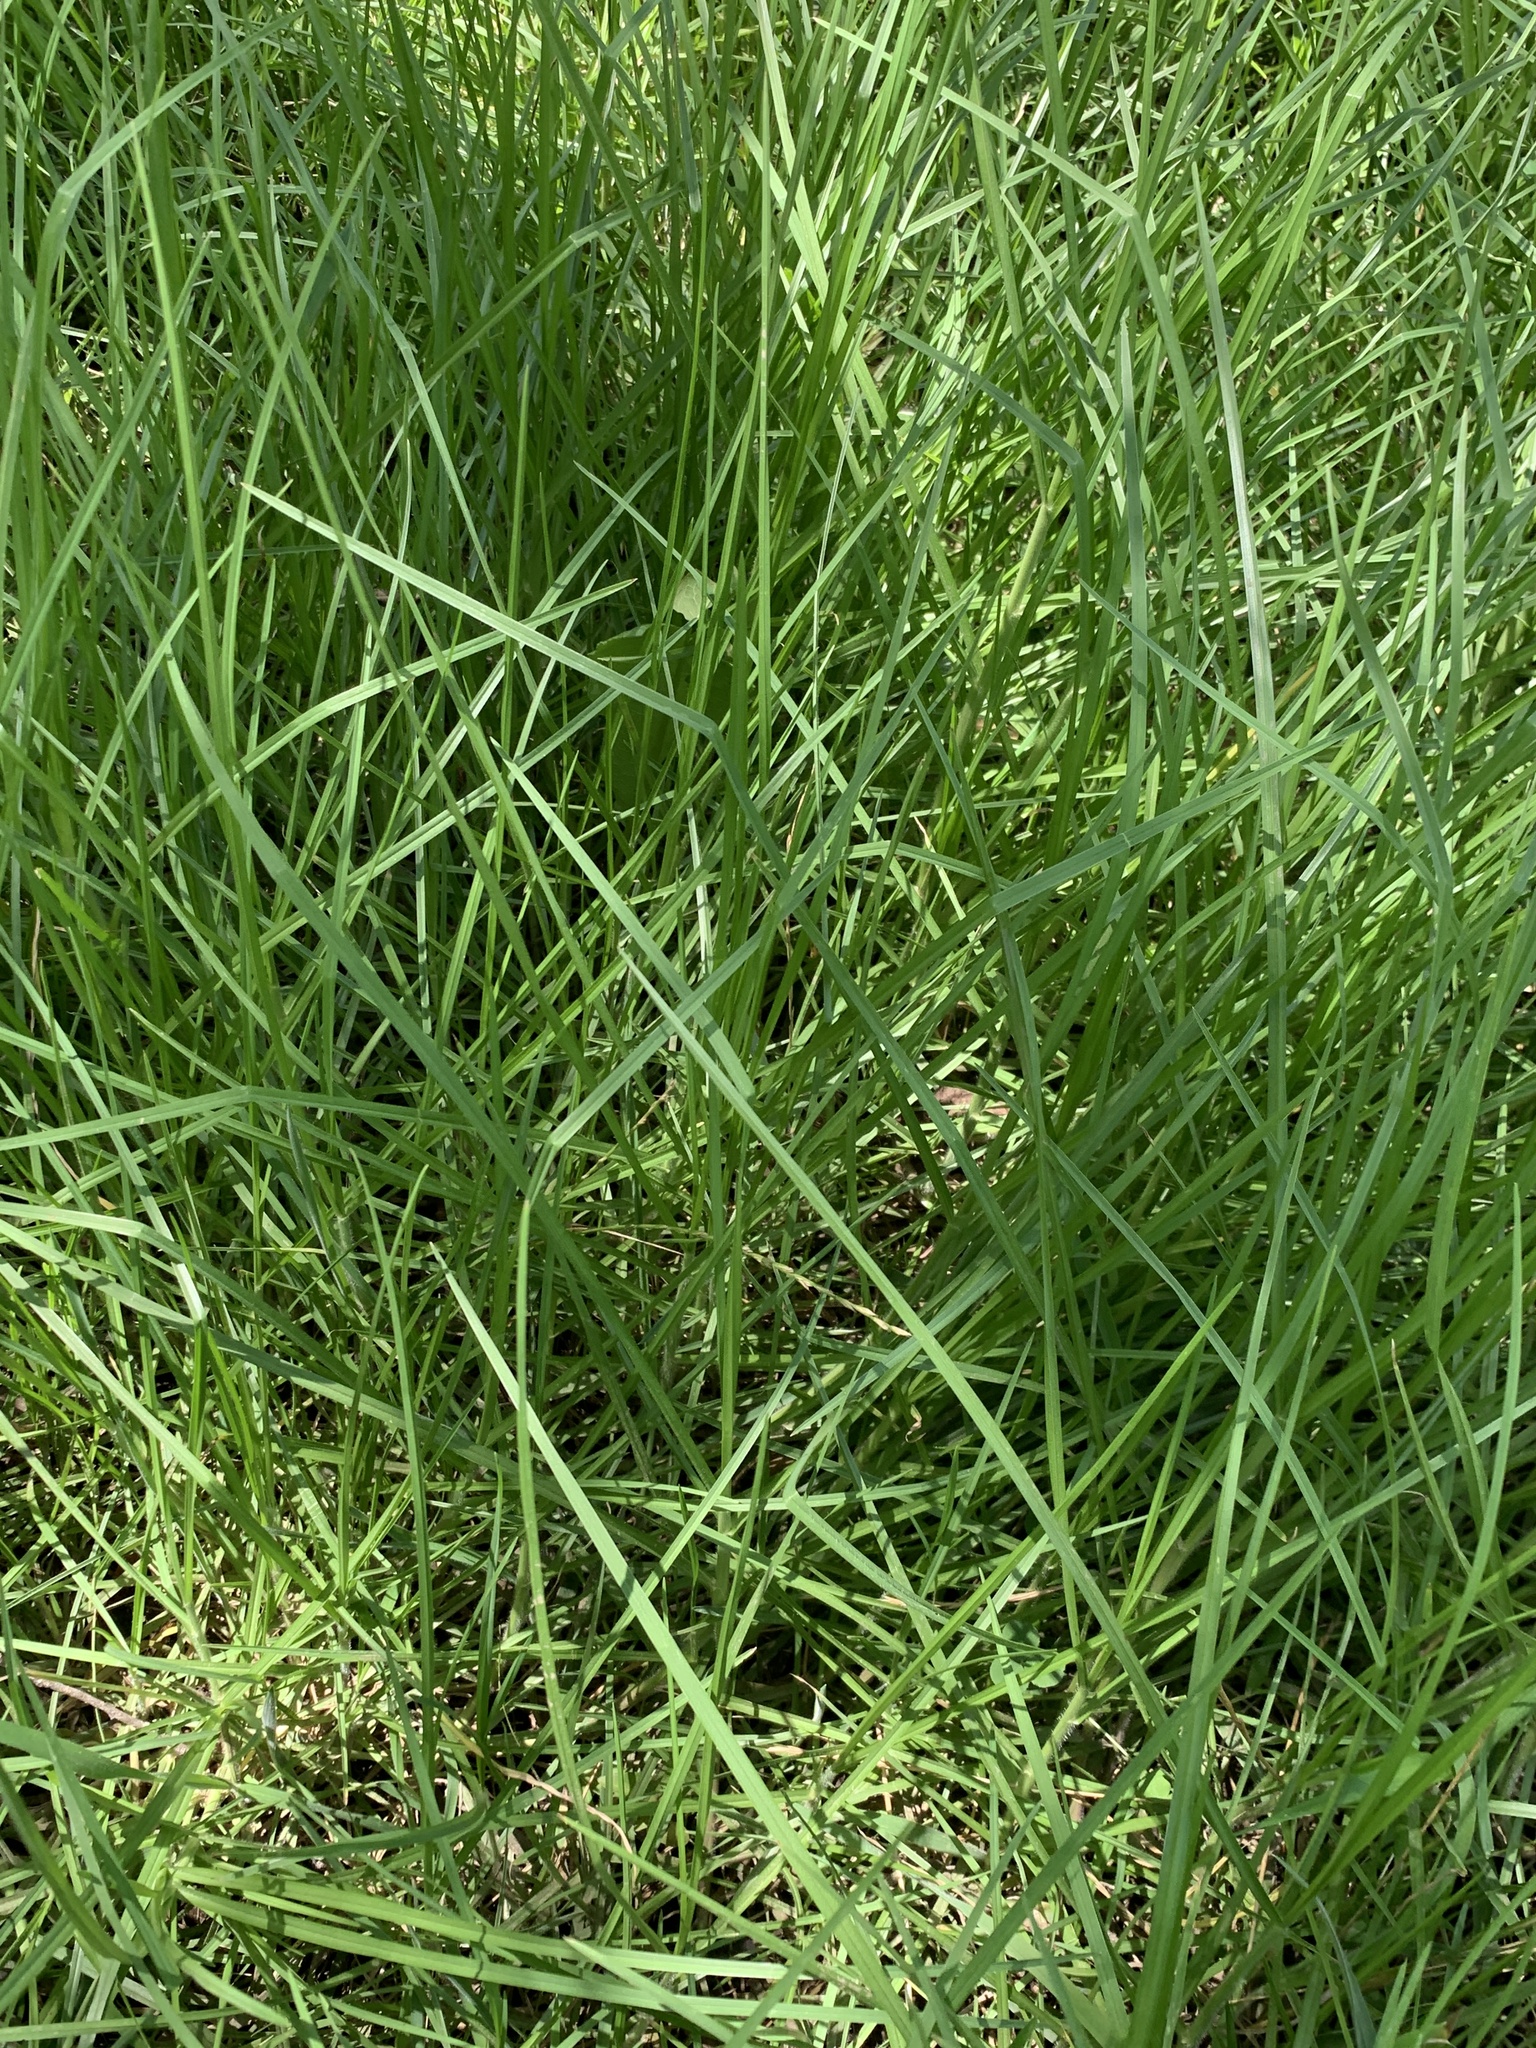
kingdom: Plantae
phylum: Tracheophyta
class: Liliopsida
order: Poales
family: Poaceae
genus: Cenchrus
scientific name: Cenchrus clandestinus
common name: Kikuyugrass
